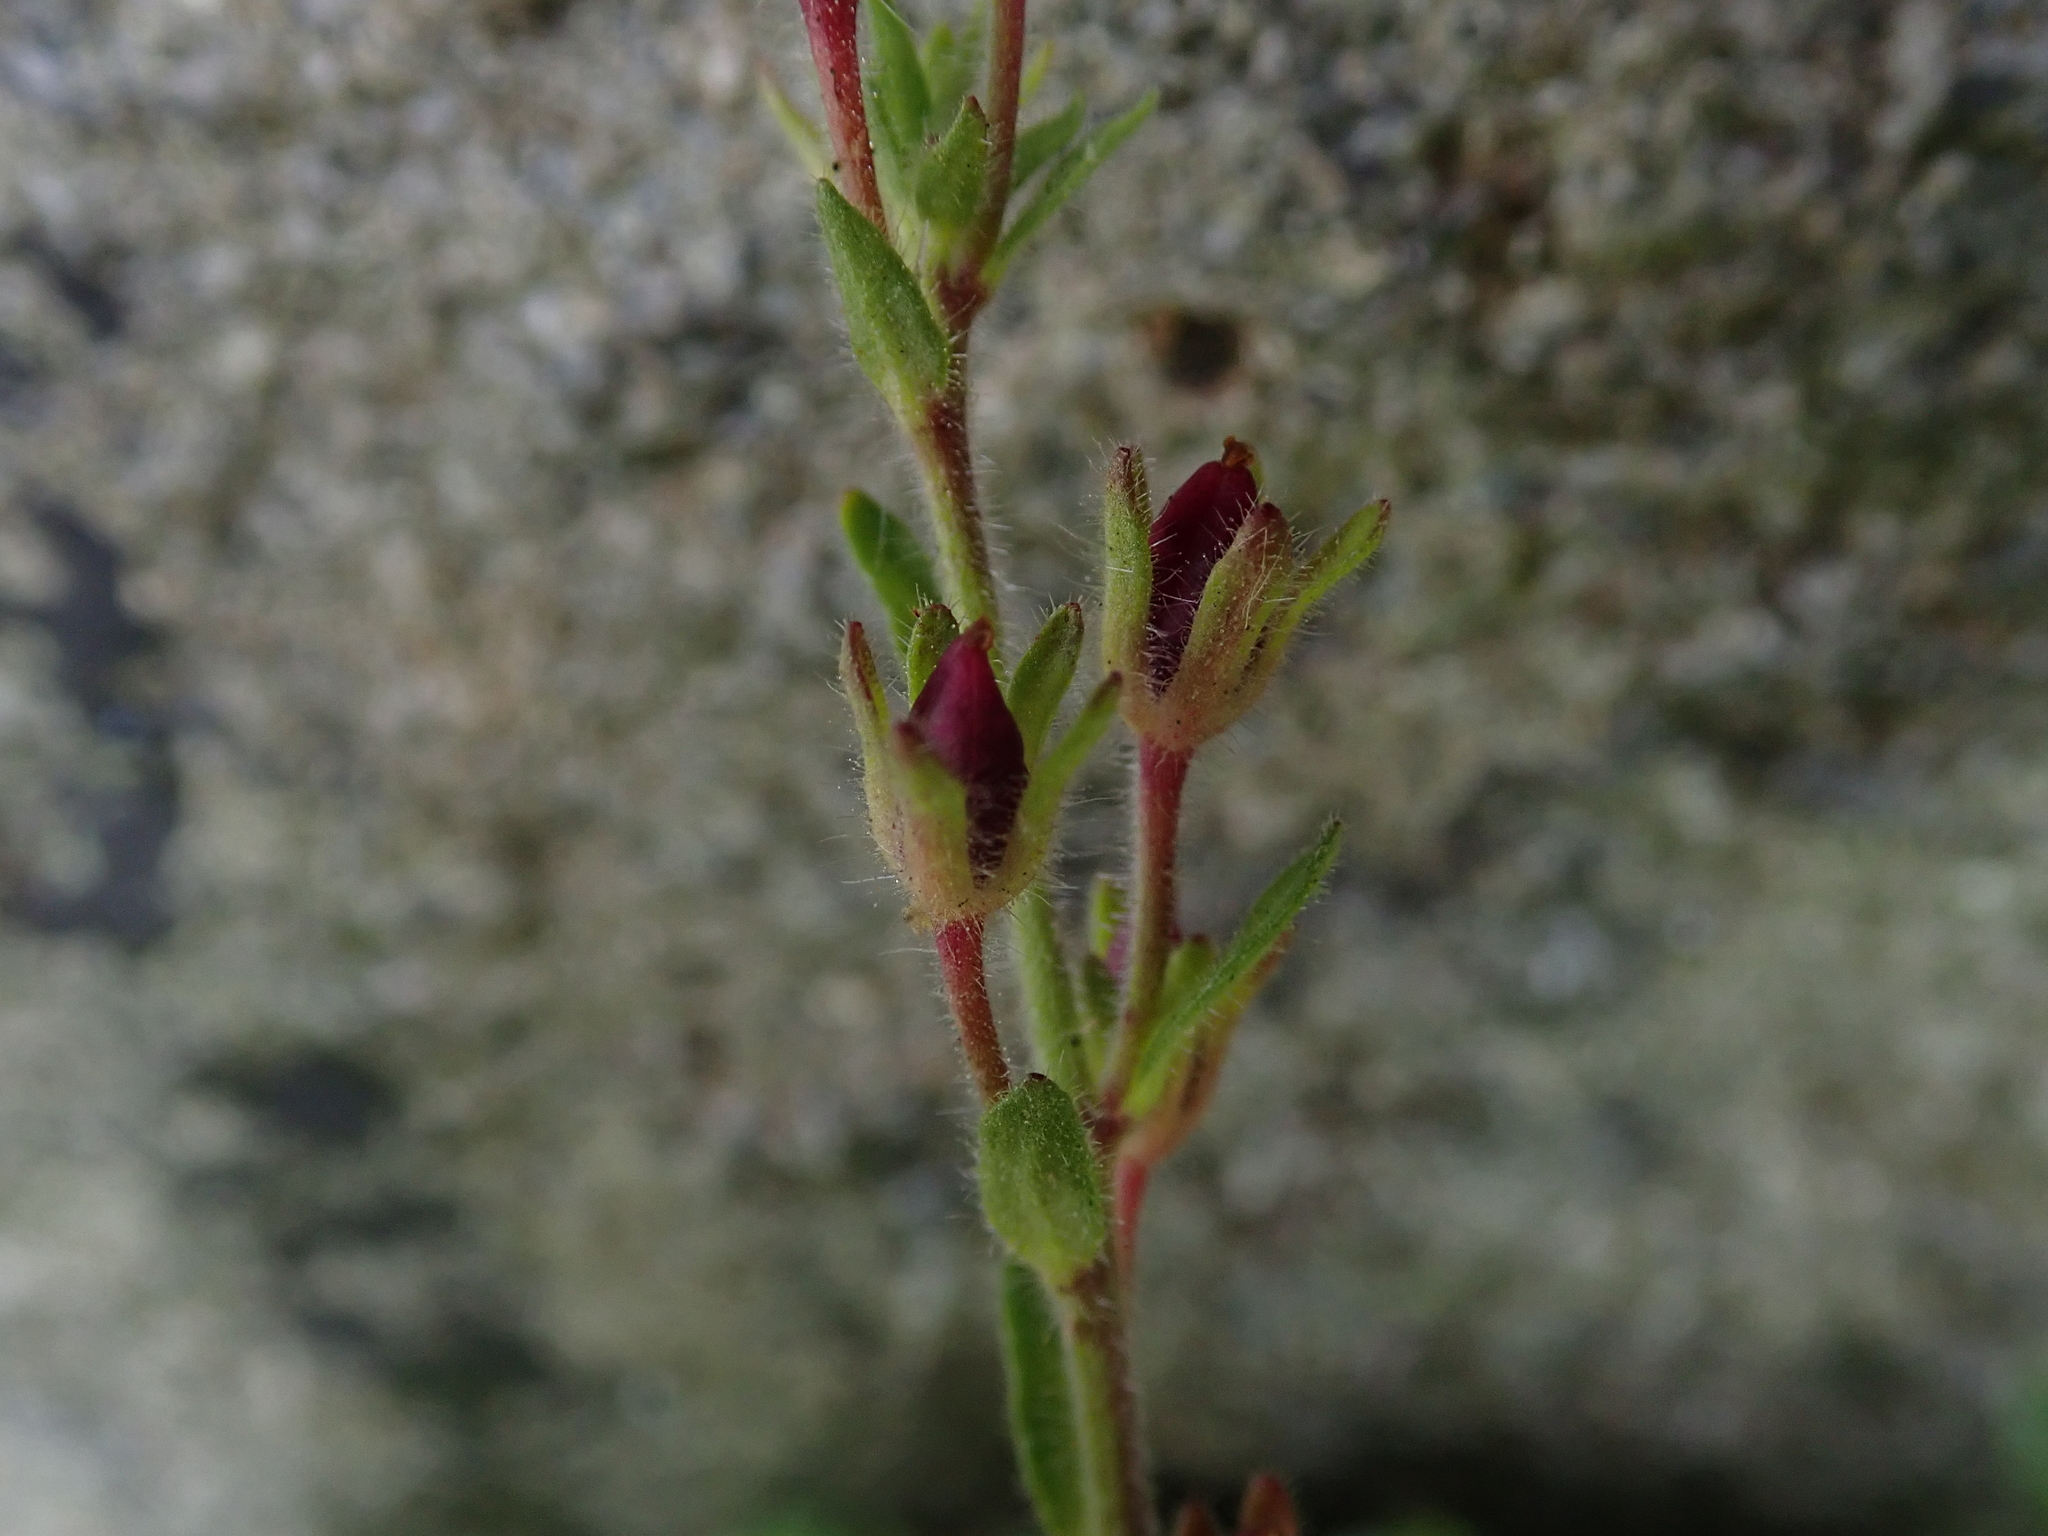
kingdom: Plantae
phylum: Tracheophyta
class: Magnoliopsida
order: Lamiales
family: Plantaginaceae
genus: Erinus
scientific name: Erinus alpinus
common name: Fairy foxglove
